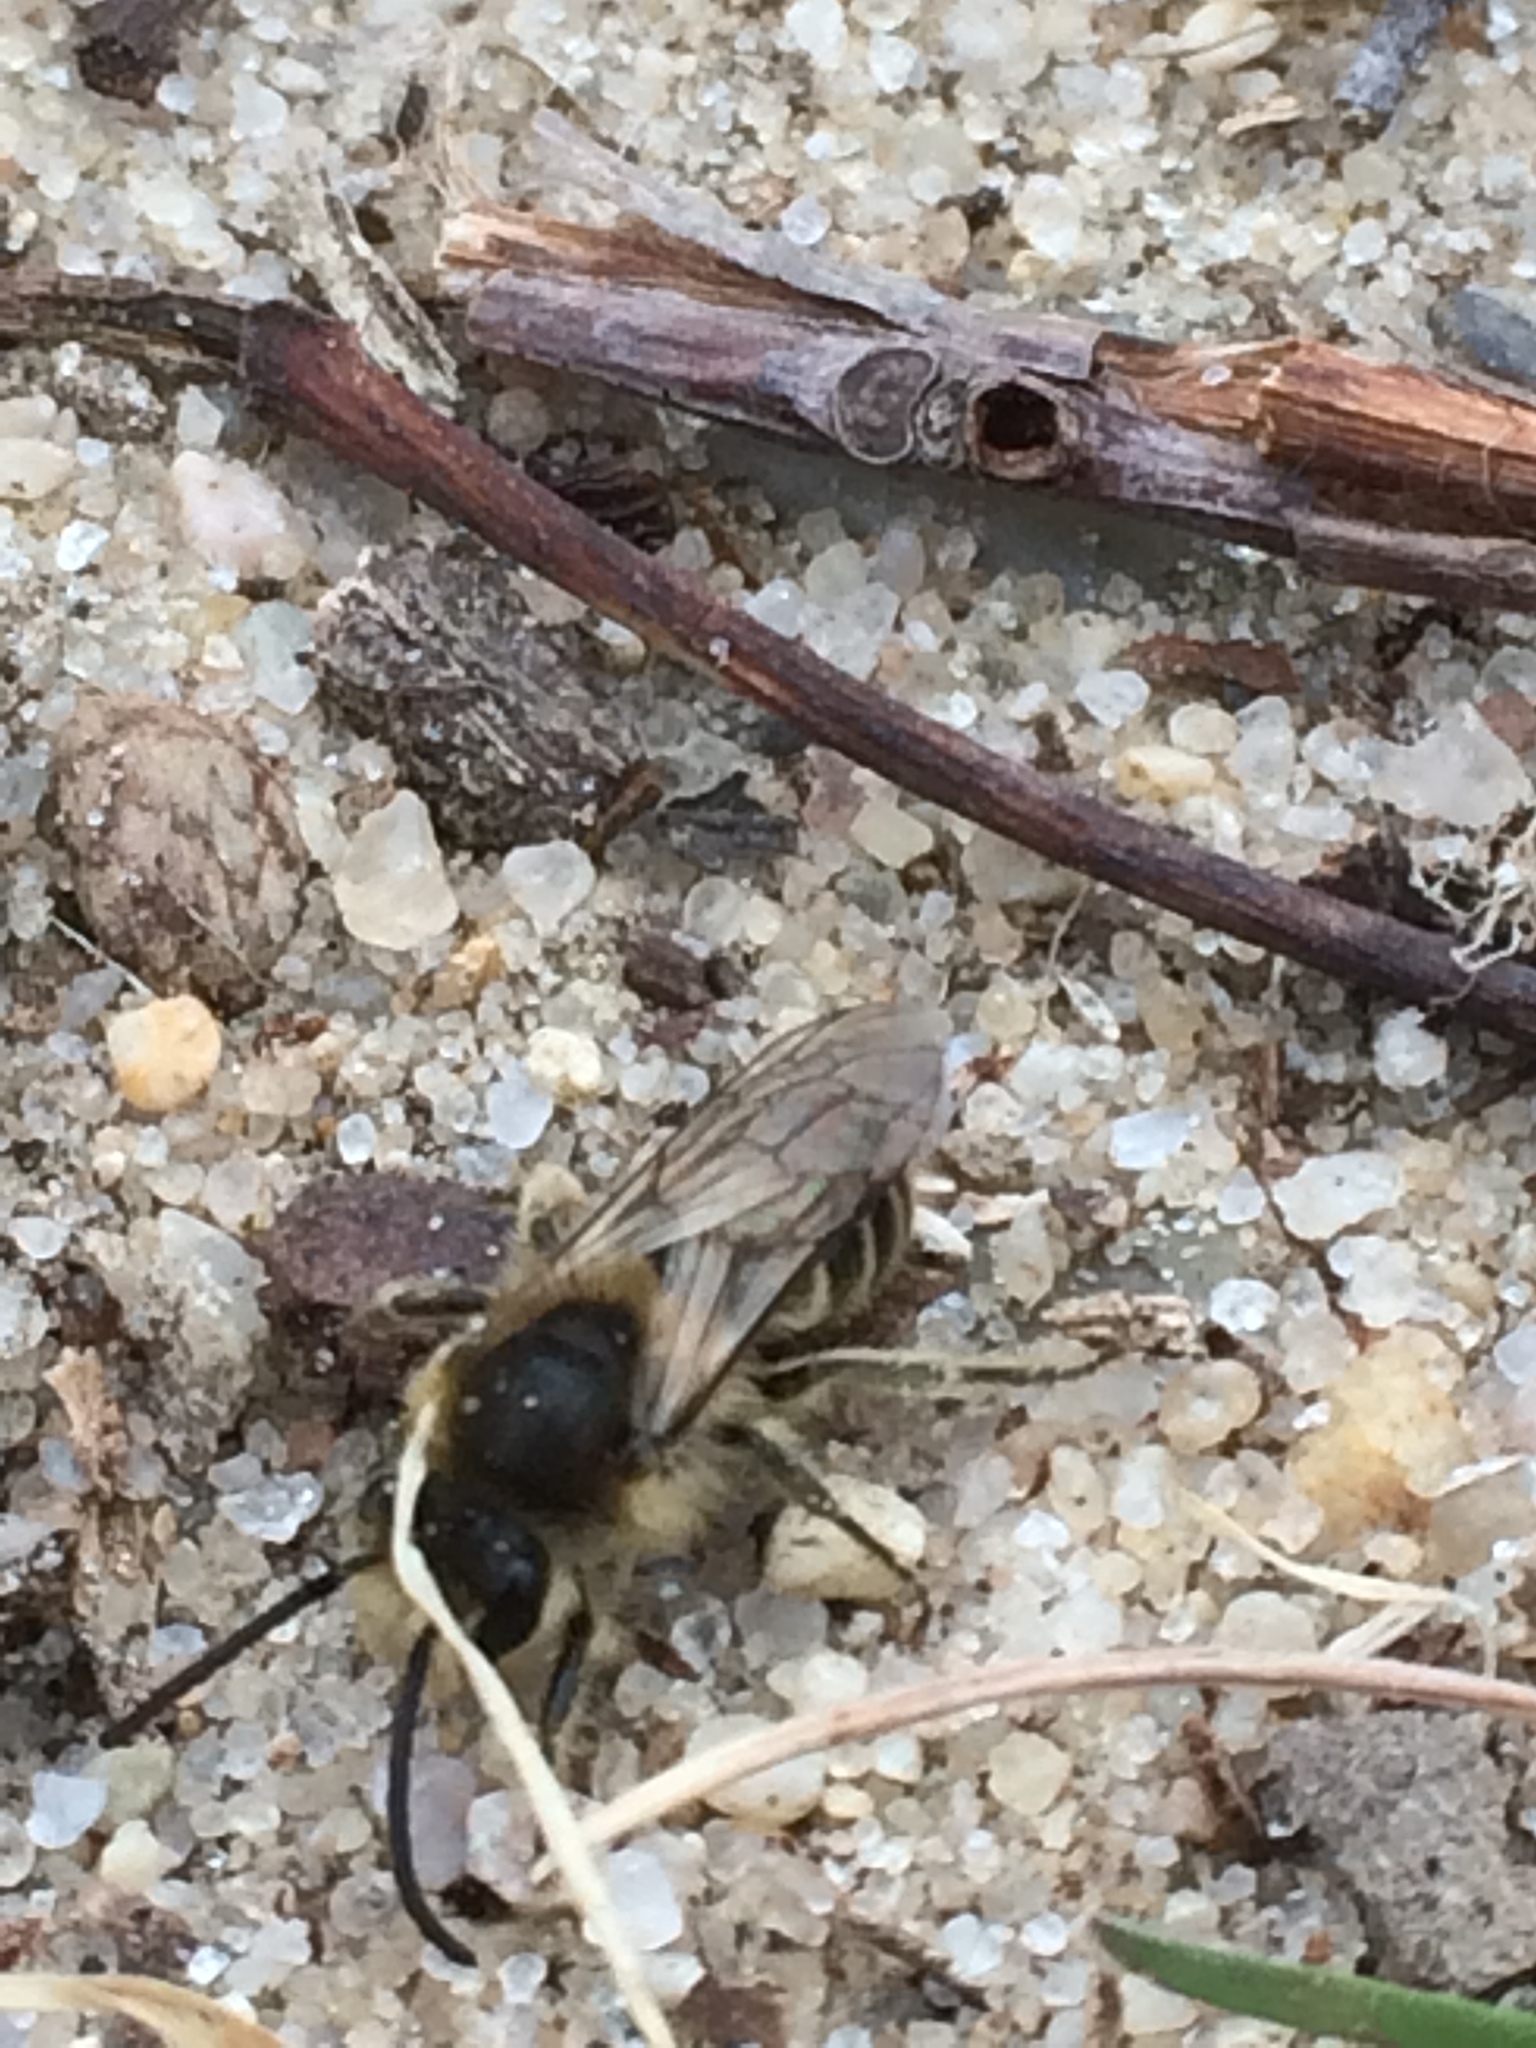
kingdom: Animalia
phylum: Arthropoda
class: Insecta
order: Hymenoptera
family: Colletidae
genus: Colletes
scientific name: Colletes inaequalis
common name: Unequal cellophane bee
